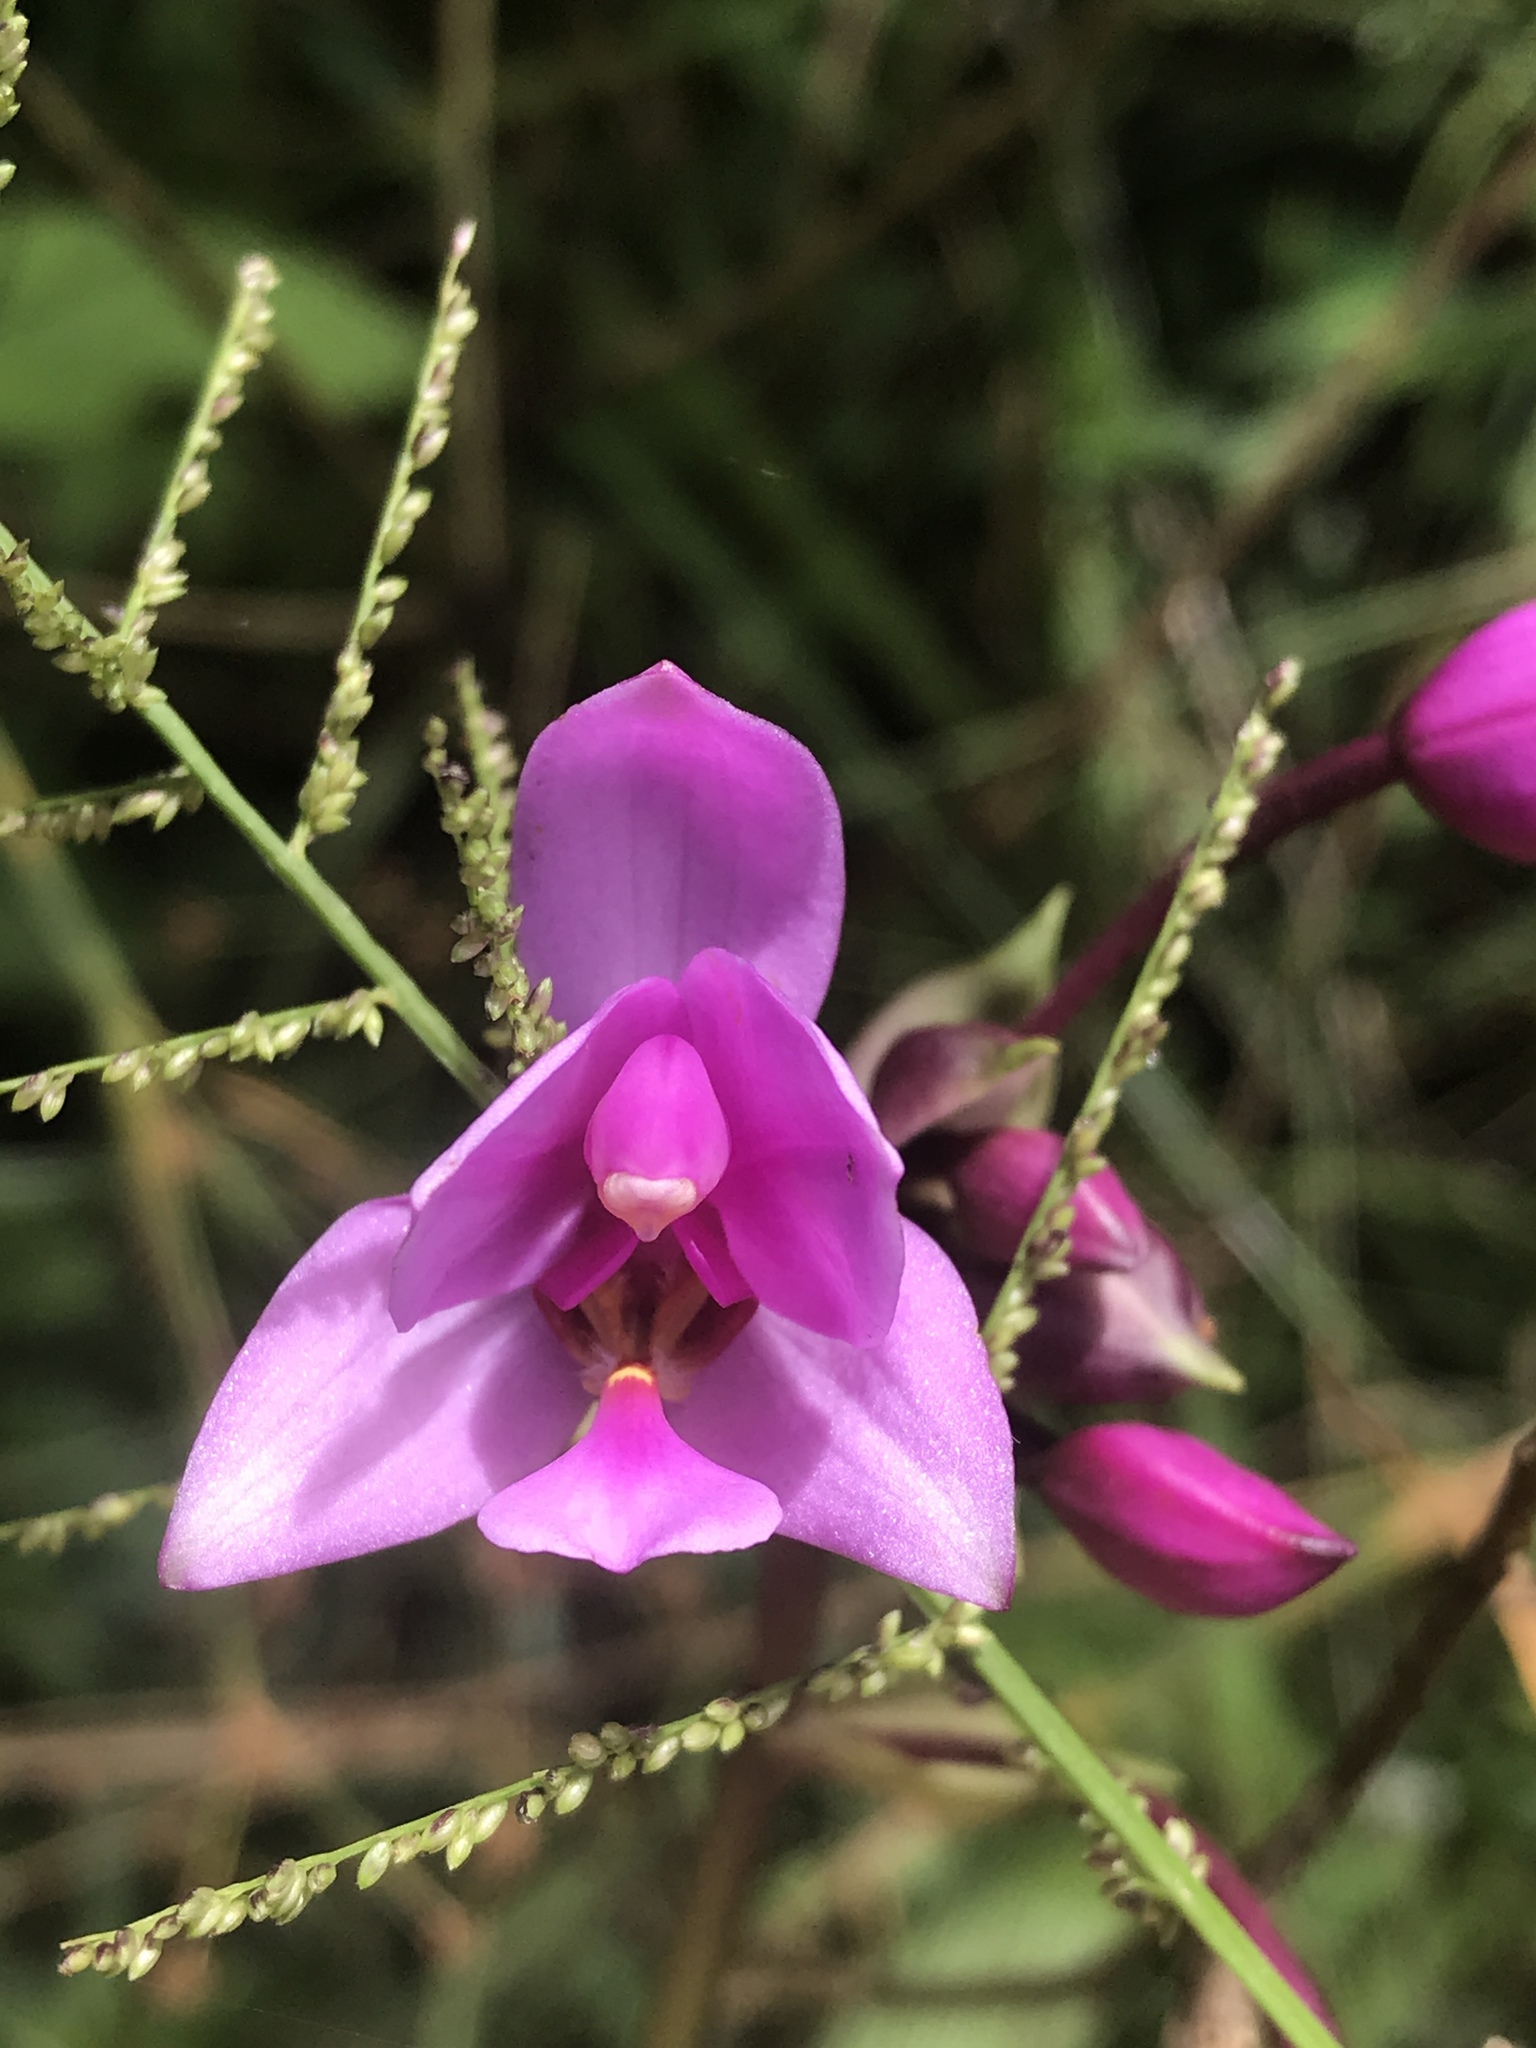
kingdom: Plantae
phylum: Tracheophyta
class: Liliopsida
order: Asparagales
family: Orchidaceae
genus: Spathoglottis
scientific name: Spathoglottis plicata
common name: Philippine ground orchid
